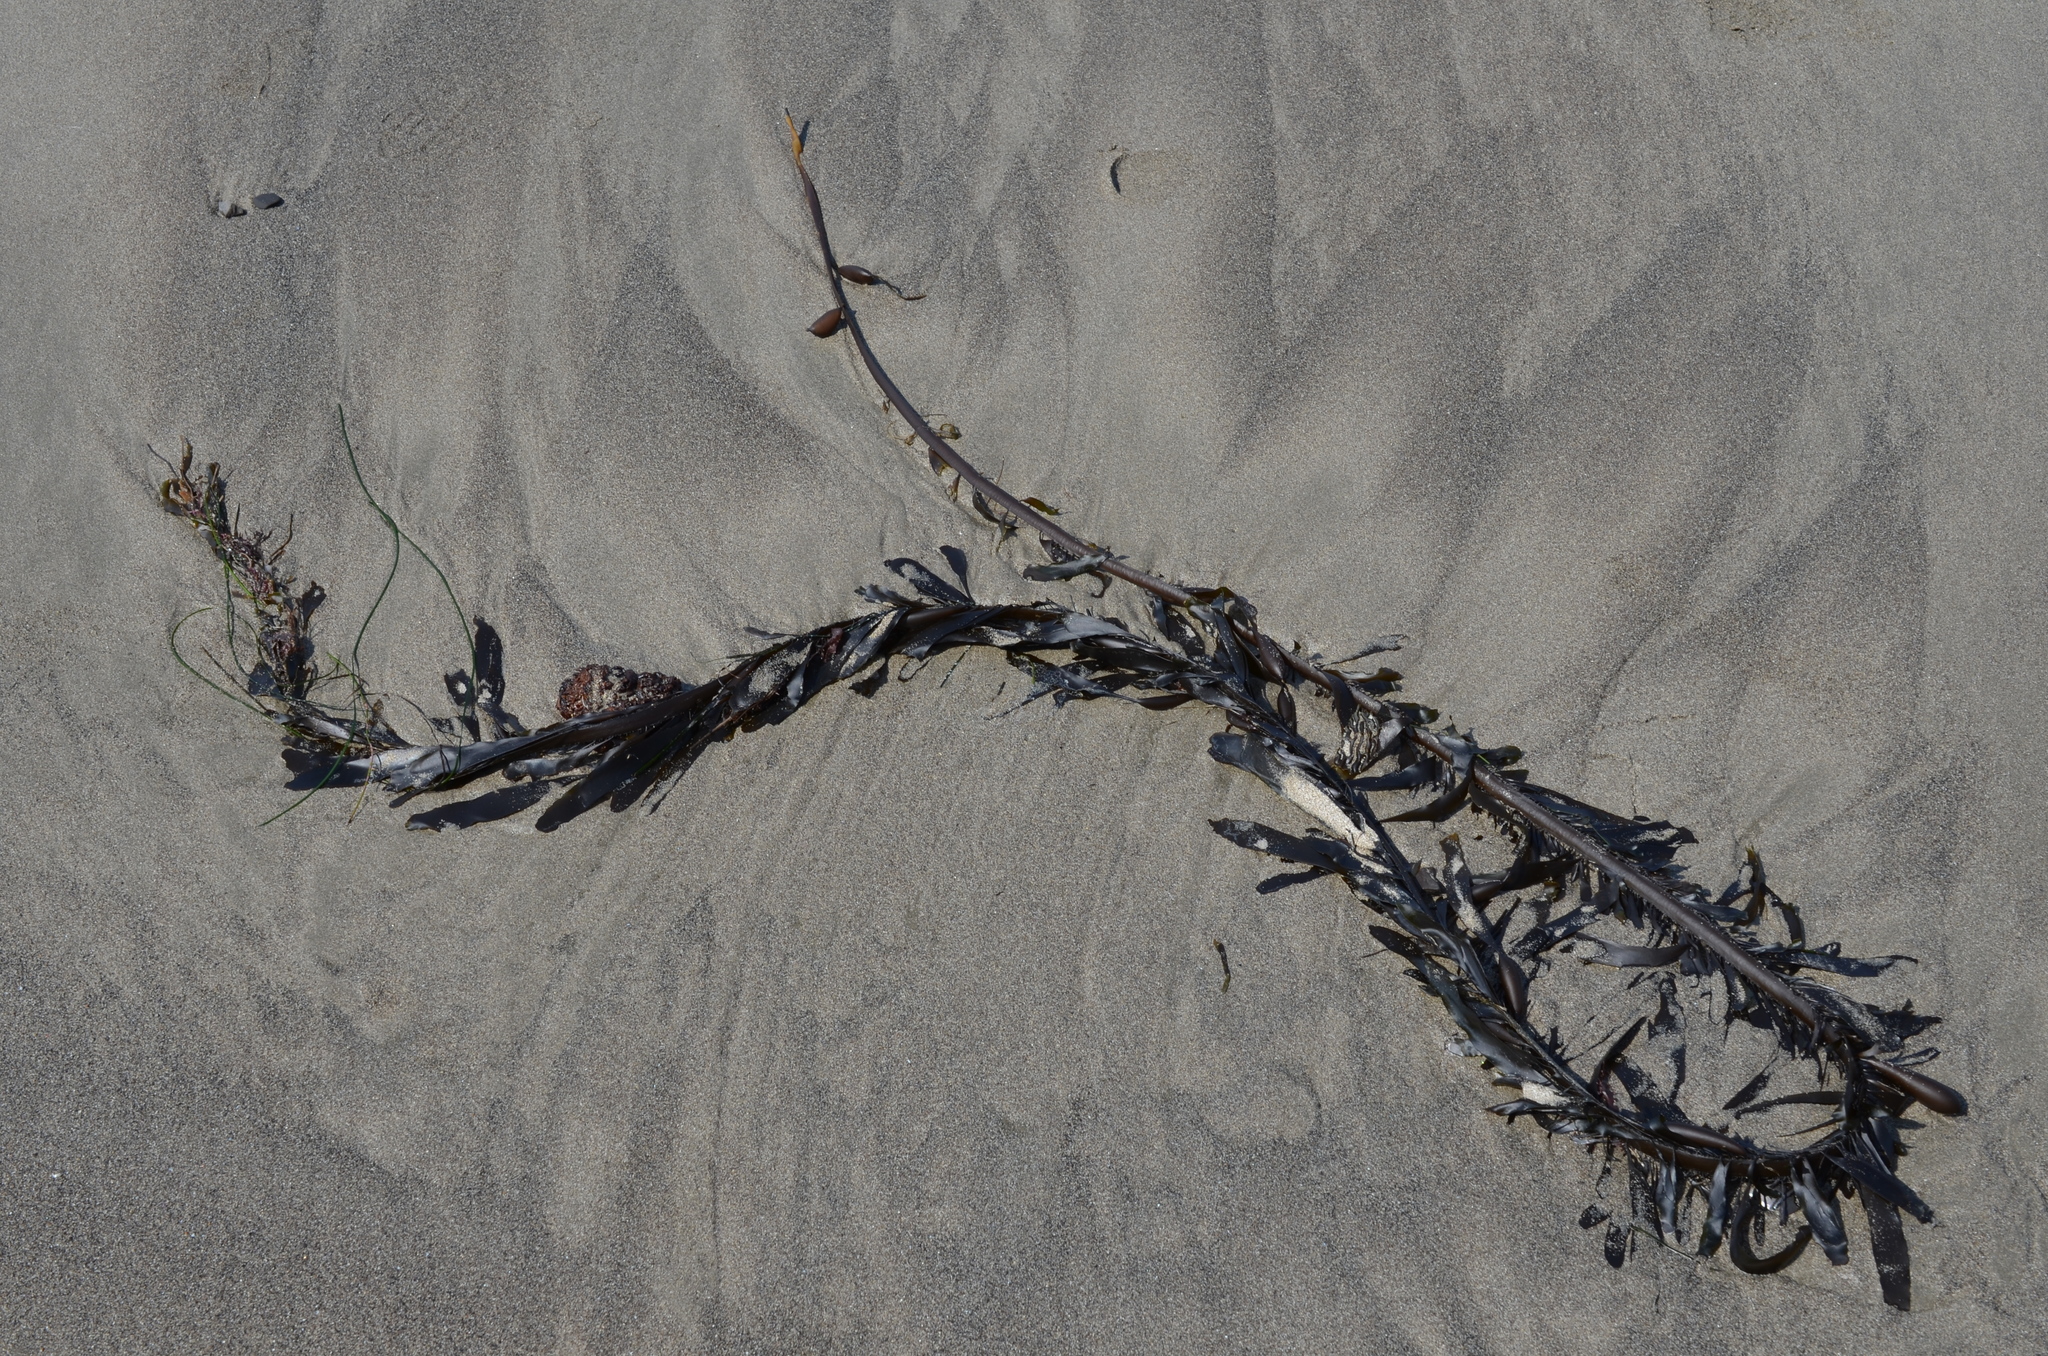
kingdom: Chromista
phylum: Ochrophyta
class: Phaeophyceae
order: Laminariales
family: Lessoniaceae
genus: Egregia
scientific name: Egregia menziesii
